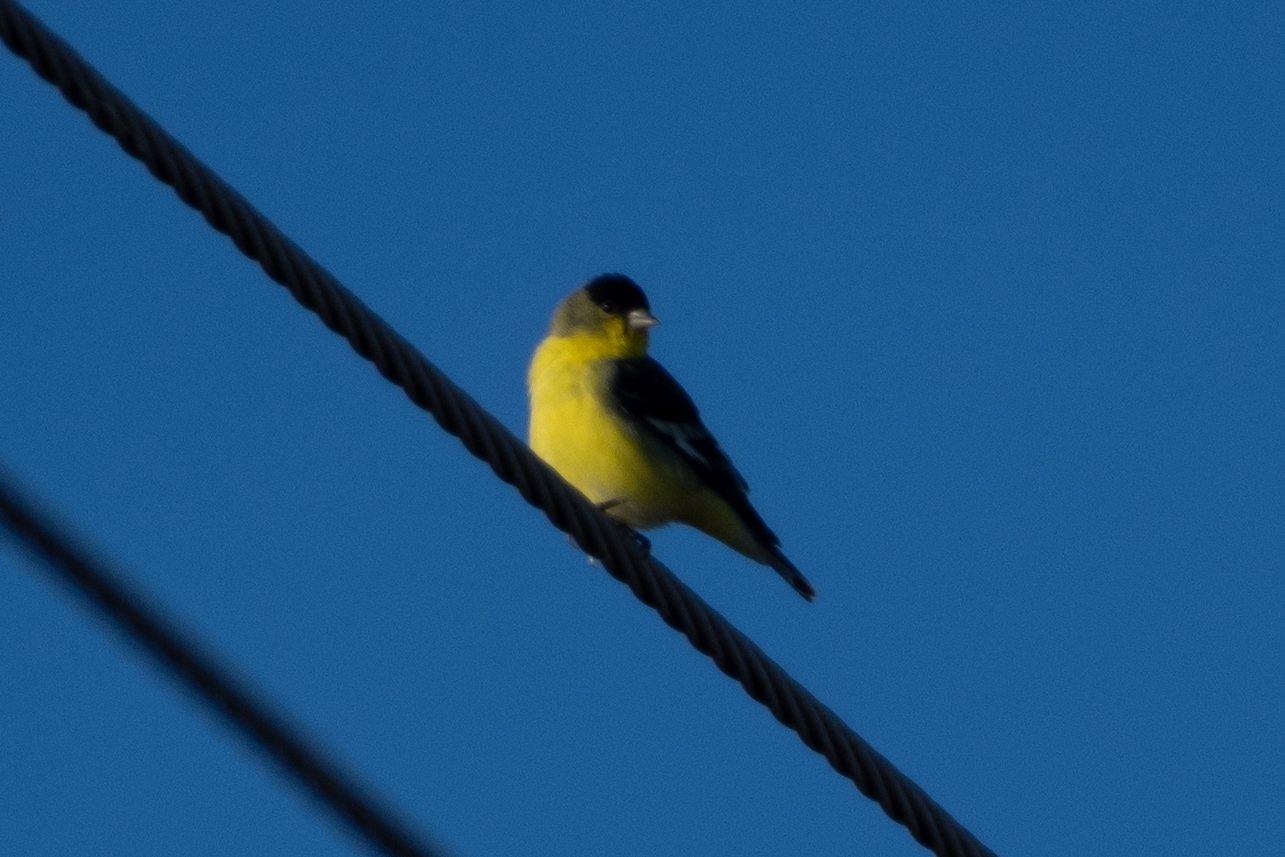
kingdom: Animalia
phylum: Chordata
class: Aves
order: Passeriformes
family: Fringillidae
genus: Spinus
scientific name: Spinus psaltria
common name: Lesser goldfinch
